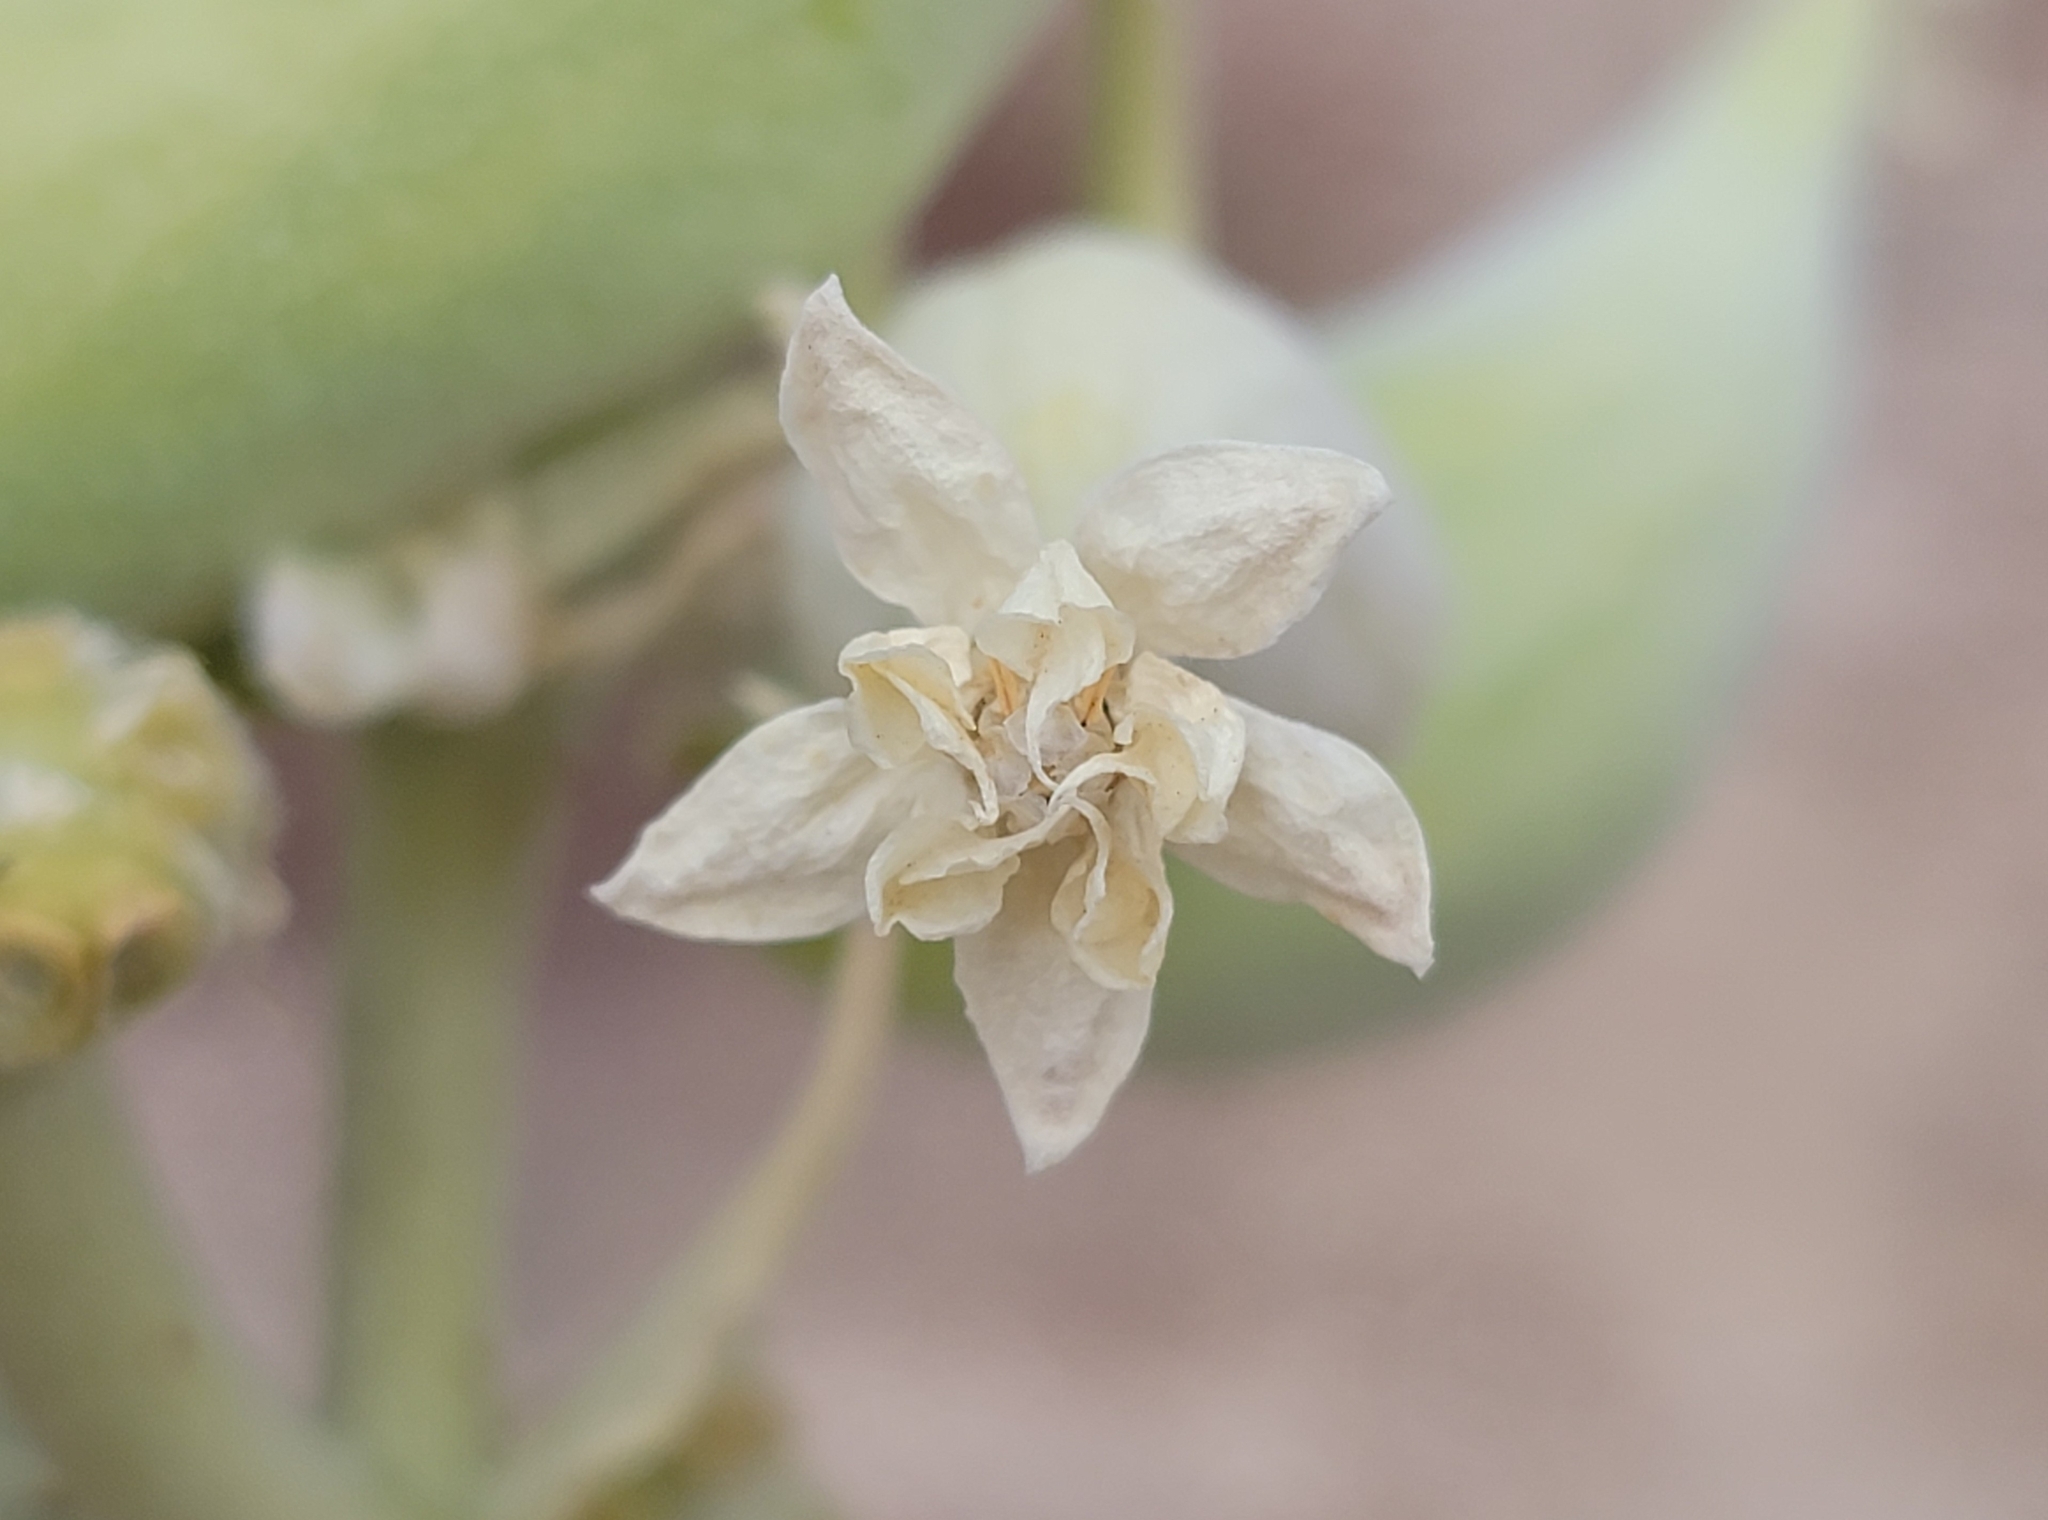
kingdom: Plantae
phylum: Tracheophyta
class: Magnoliopsida
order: Gentianales
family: Apocynaceae
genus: Asclepias
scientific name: Asclepias erosa
